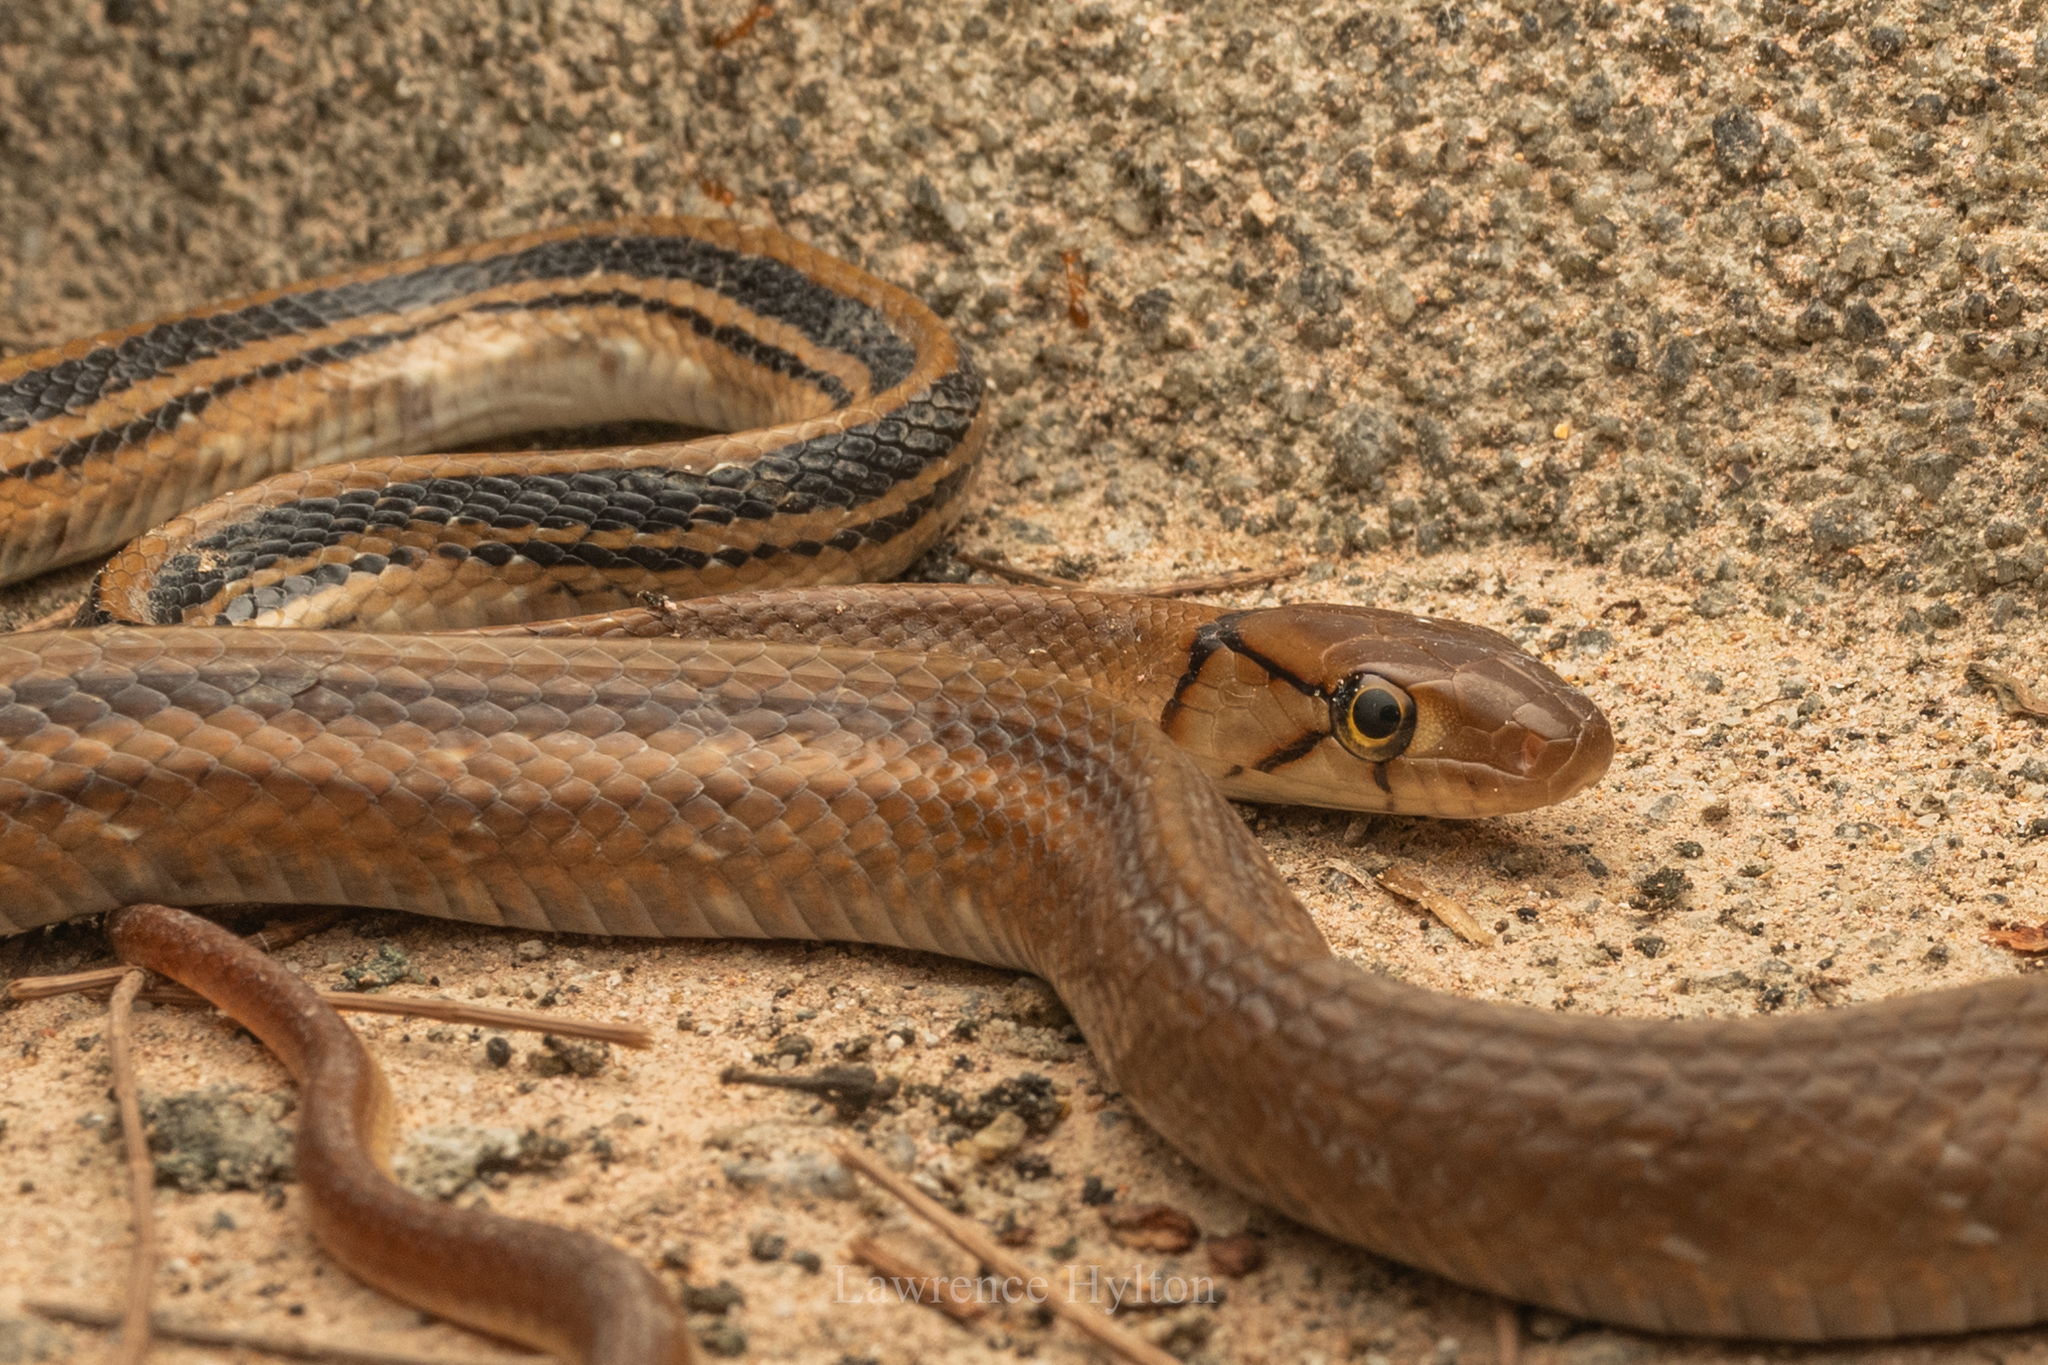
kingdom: Animalia
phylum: Chordata
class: Squamata
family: Colubridae
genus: Coelognathus
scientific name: Coelognathus radiatus
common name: Copperhead rat snake
